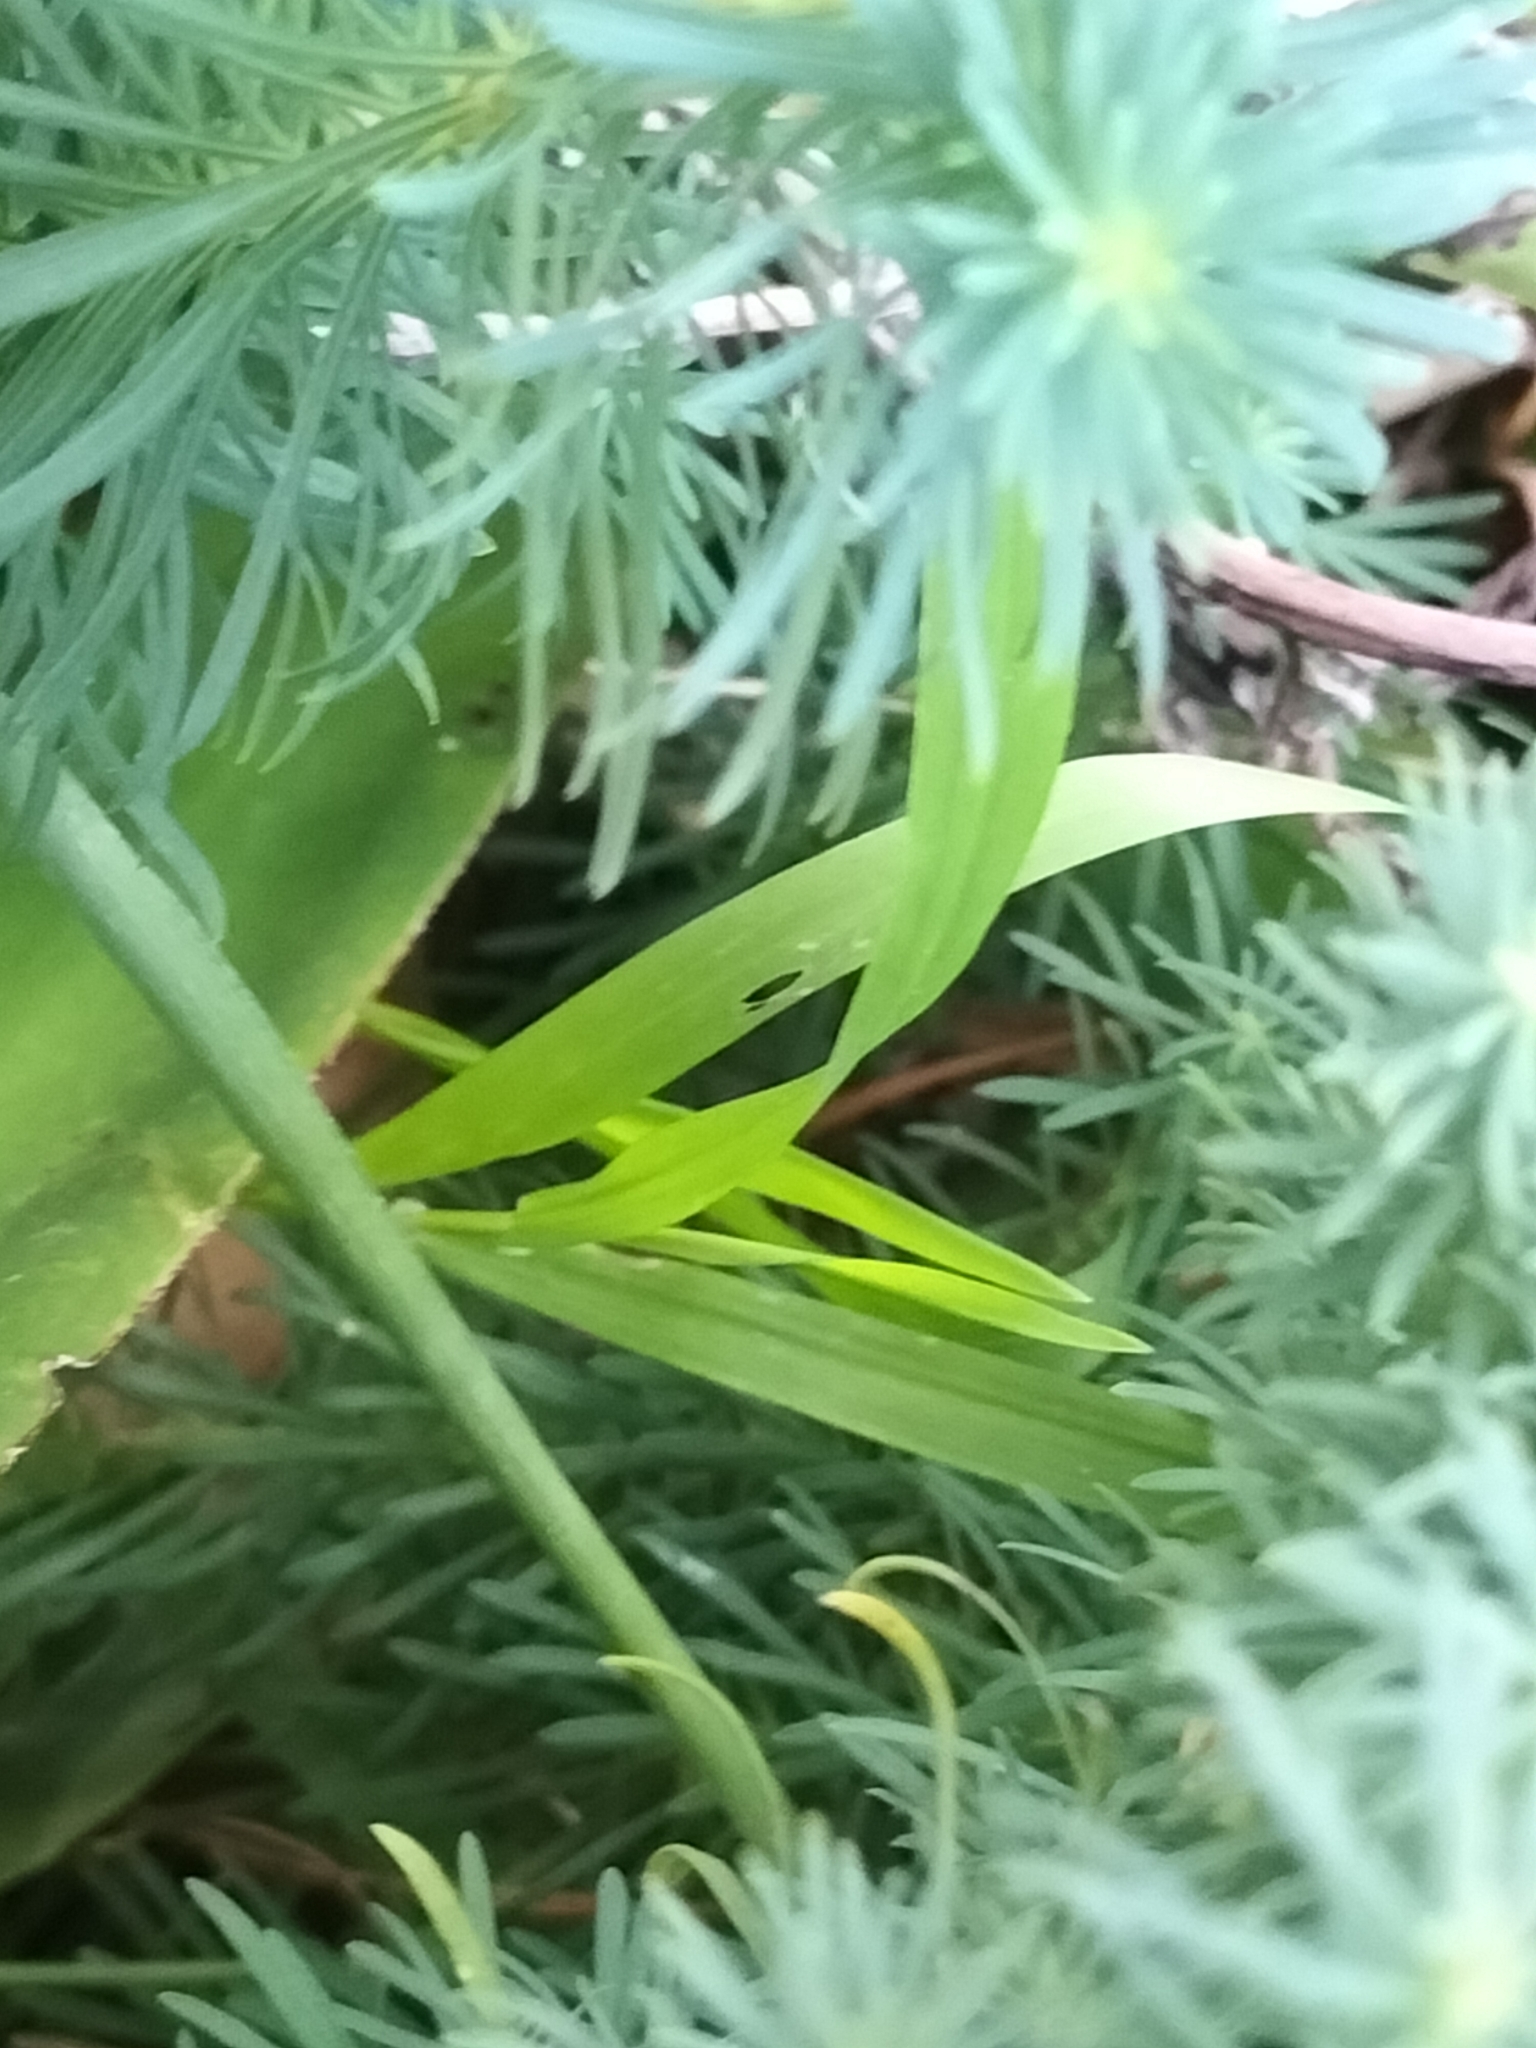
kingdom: Plantae
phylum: Tracheophyta
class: Liliopsida
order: Poales
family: Poaceae
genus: Dichelachne
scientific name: Dichelachne crinita
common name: Clovenfoot plumegrass
